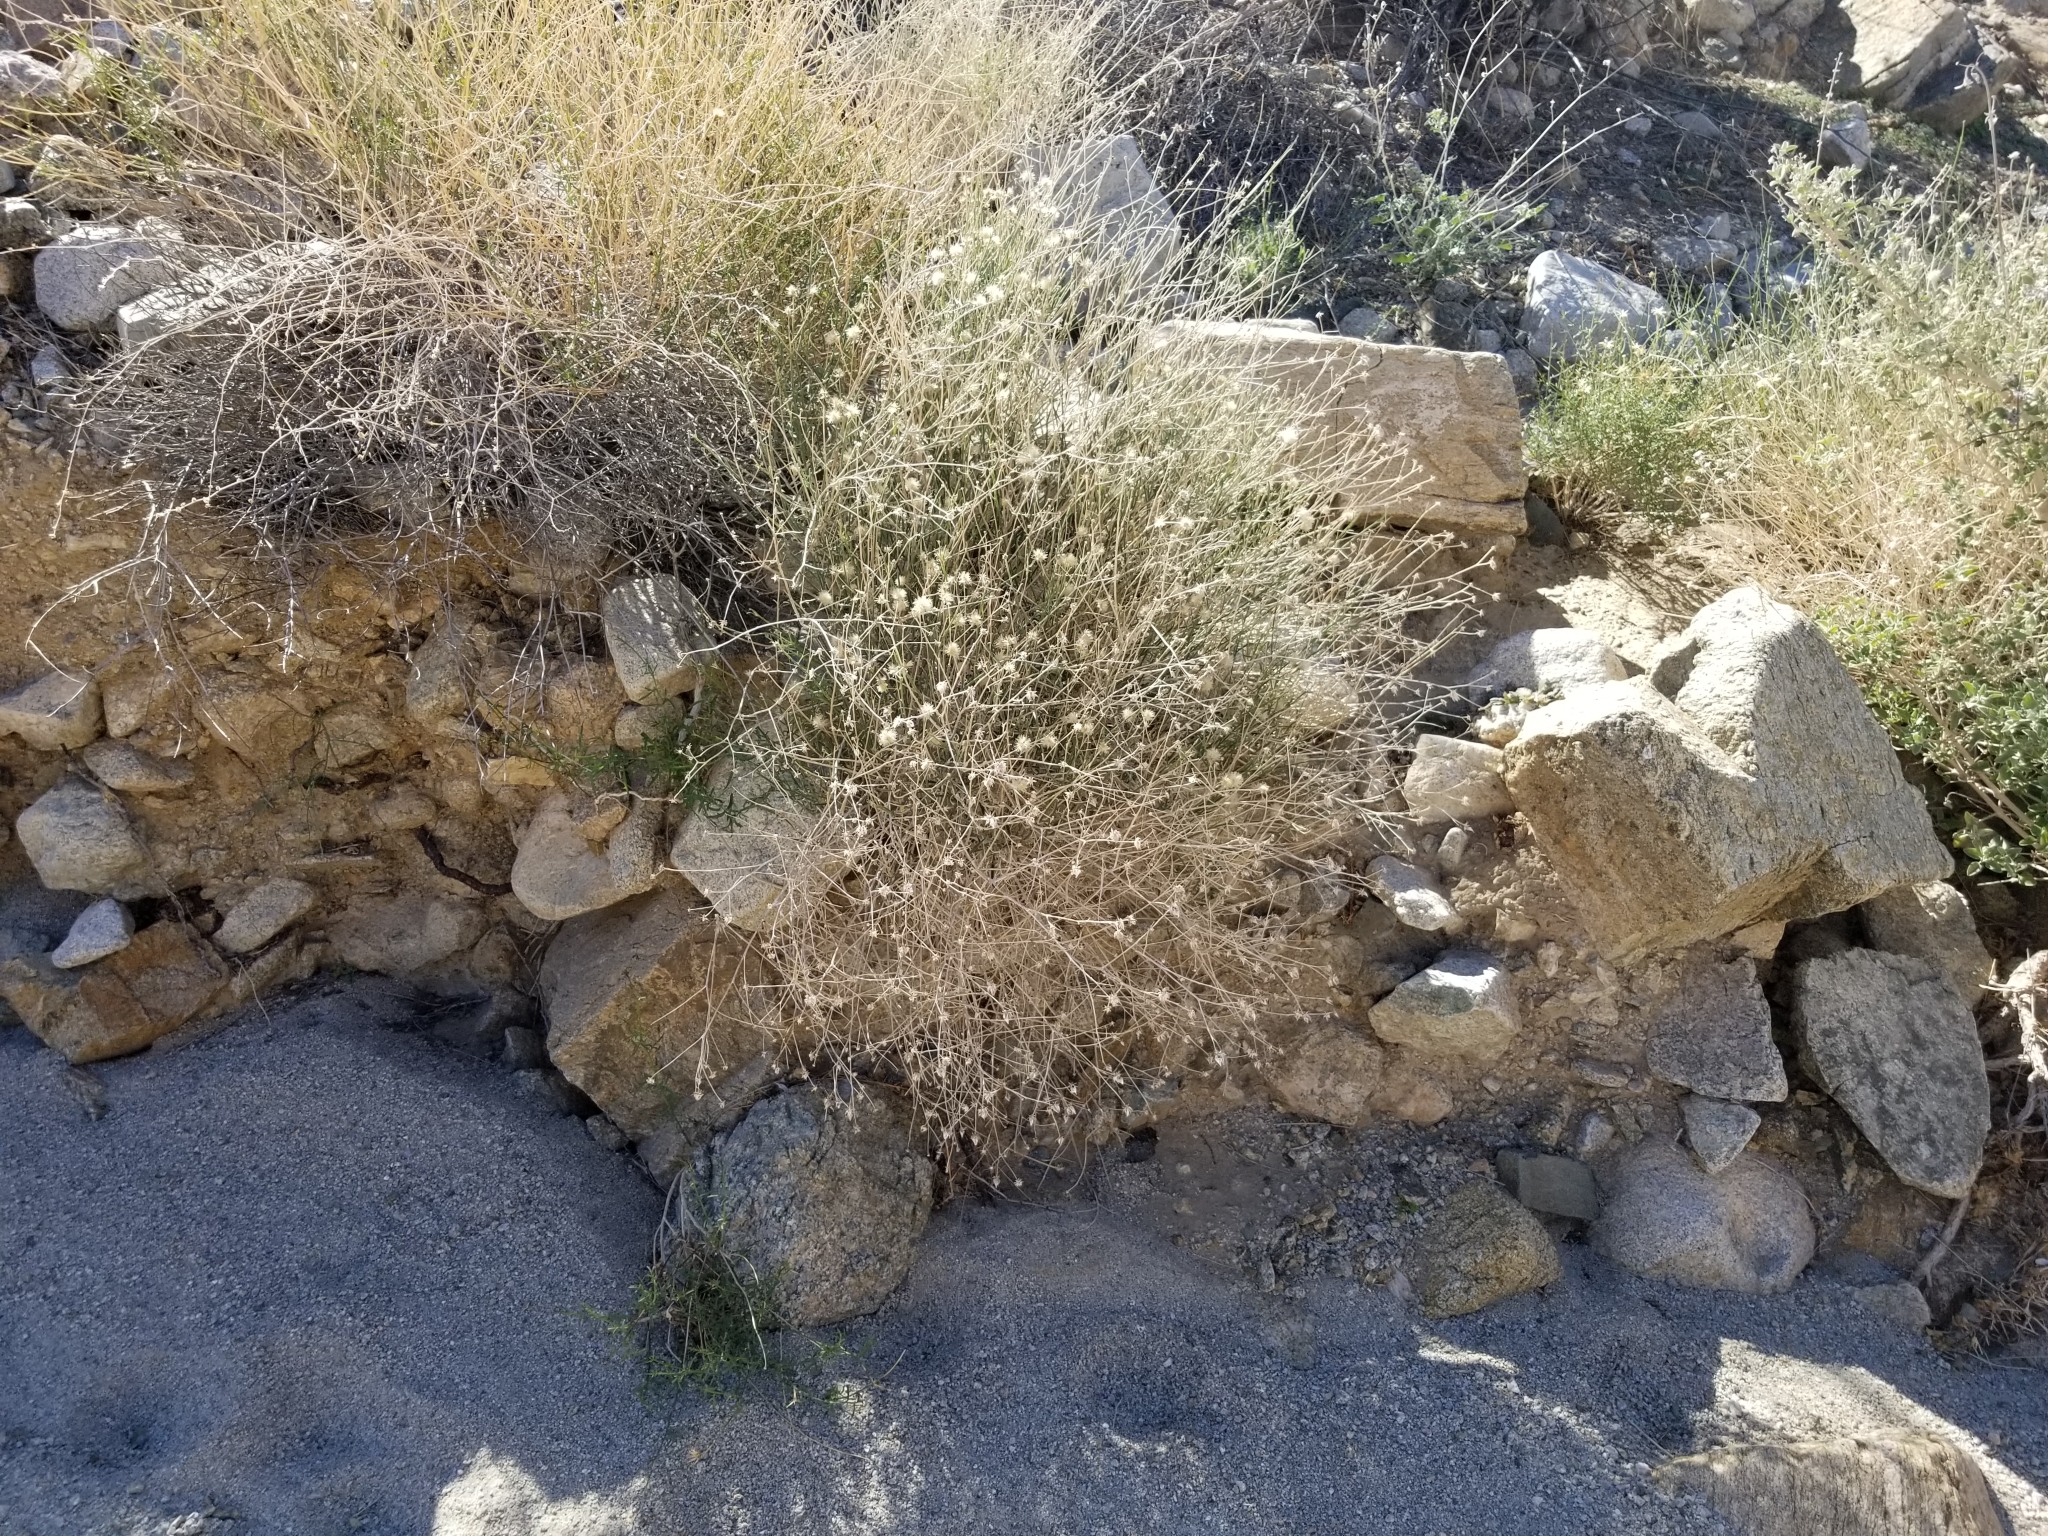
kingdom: Plantae
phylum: Tracheophyta
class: Magnoliopsida
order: Asterales
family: Asteraceae
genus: Bebbia
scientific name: Bebbia juncea
